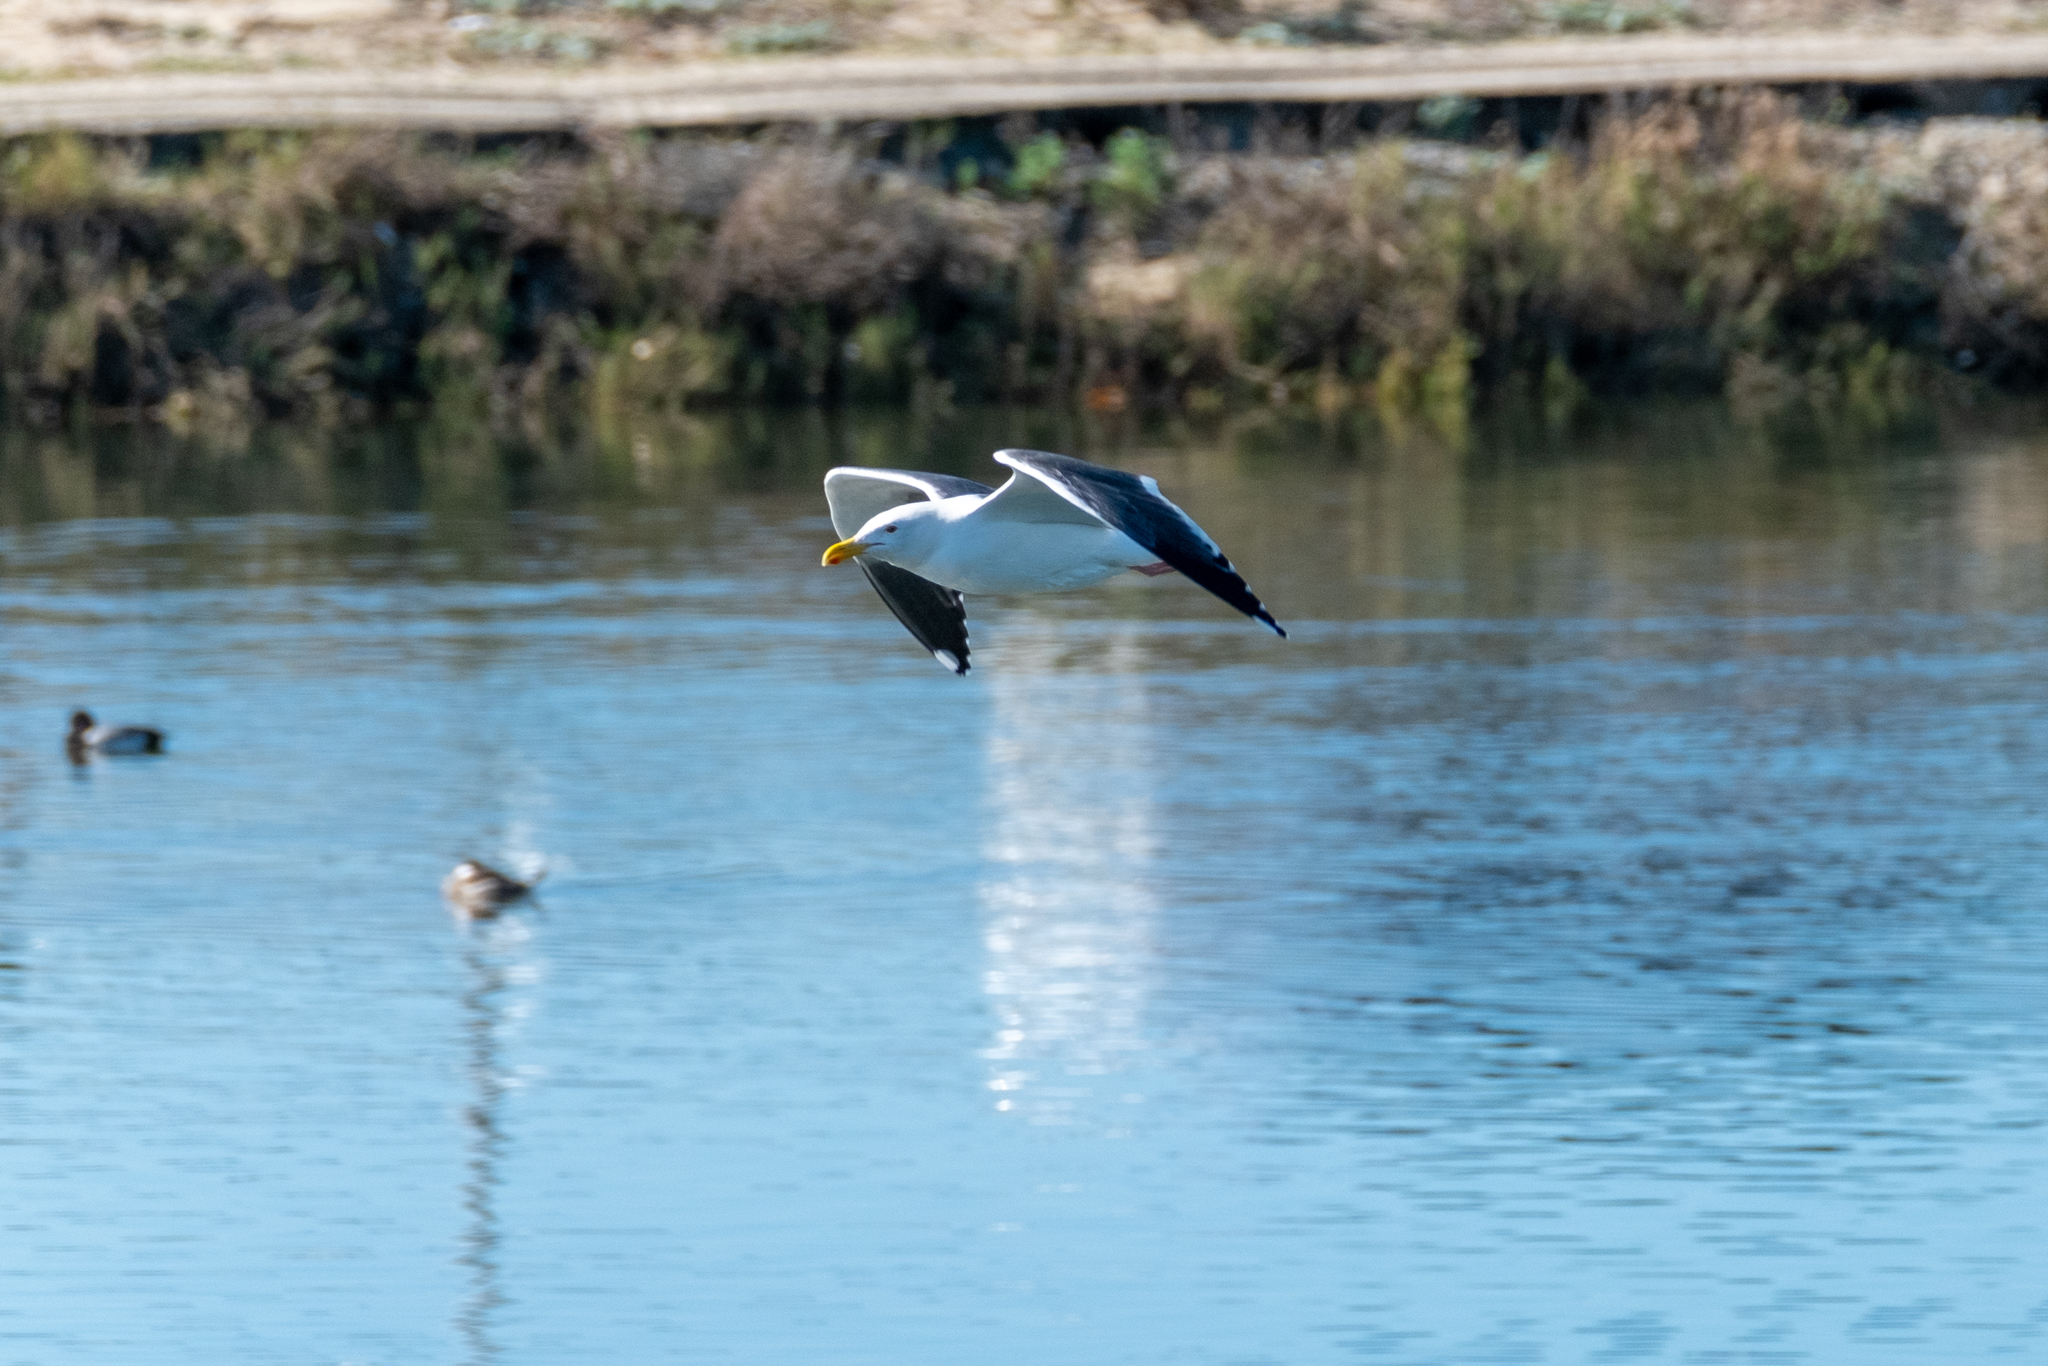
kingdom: Animalia
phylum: Chordata
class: Aves
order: Charadriiformes
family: Laridae
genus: Larus
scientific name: Larus occidentalis
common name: Western gull
